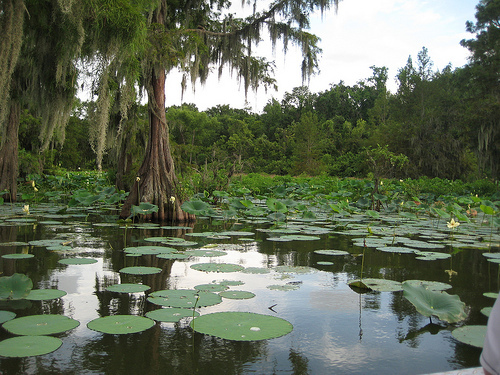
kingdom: Plantae
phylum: Tracheophyta
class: Magnoliopsida
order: Proteales
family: Nelumbonaceae
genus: Nelumbo
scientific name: Nelumbo lutea
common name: American lotus
